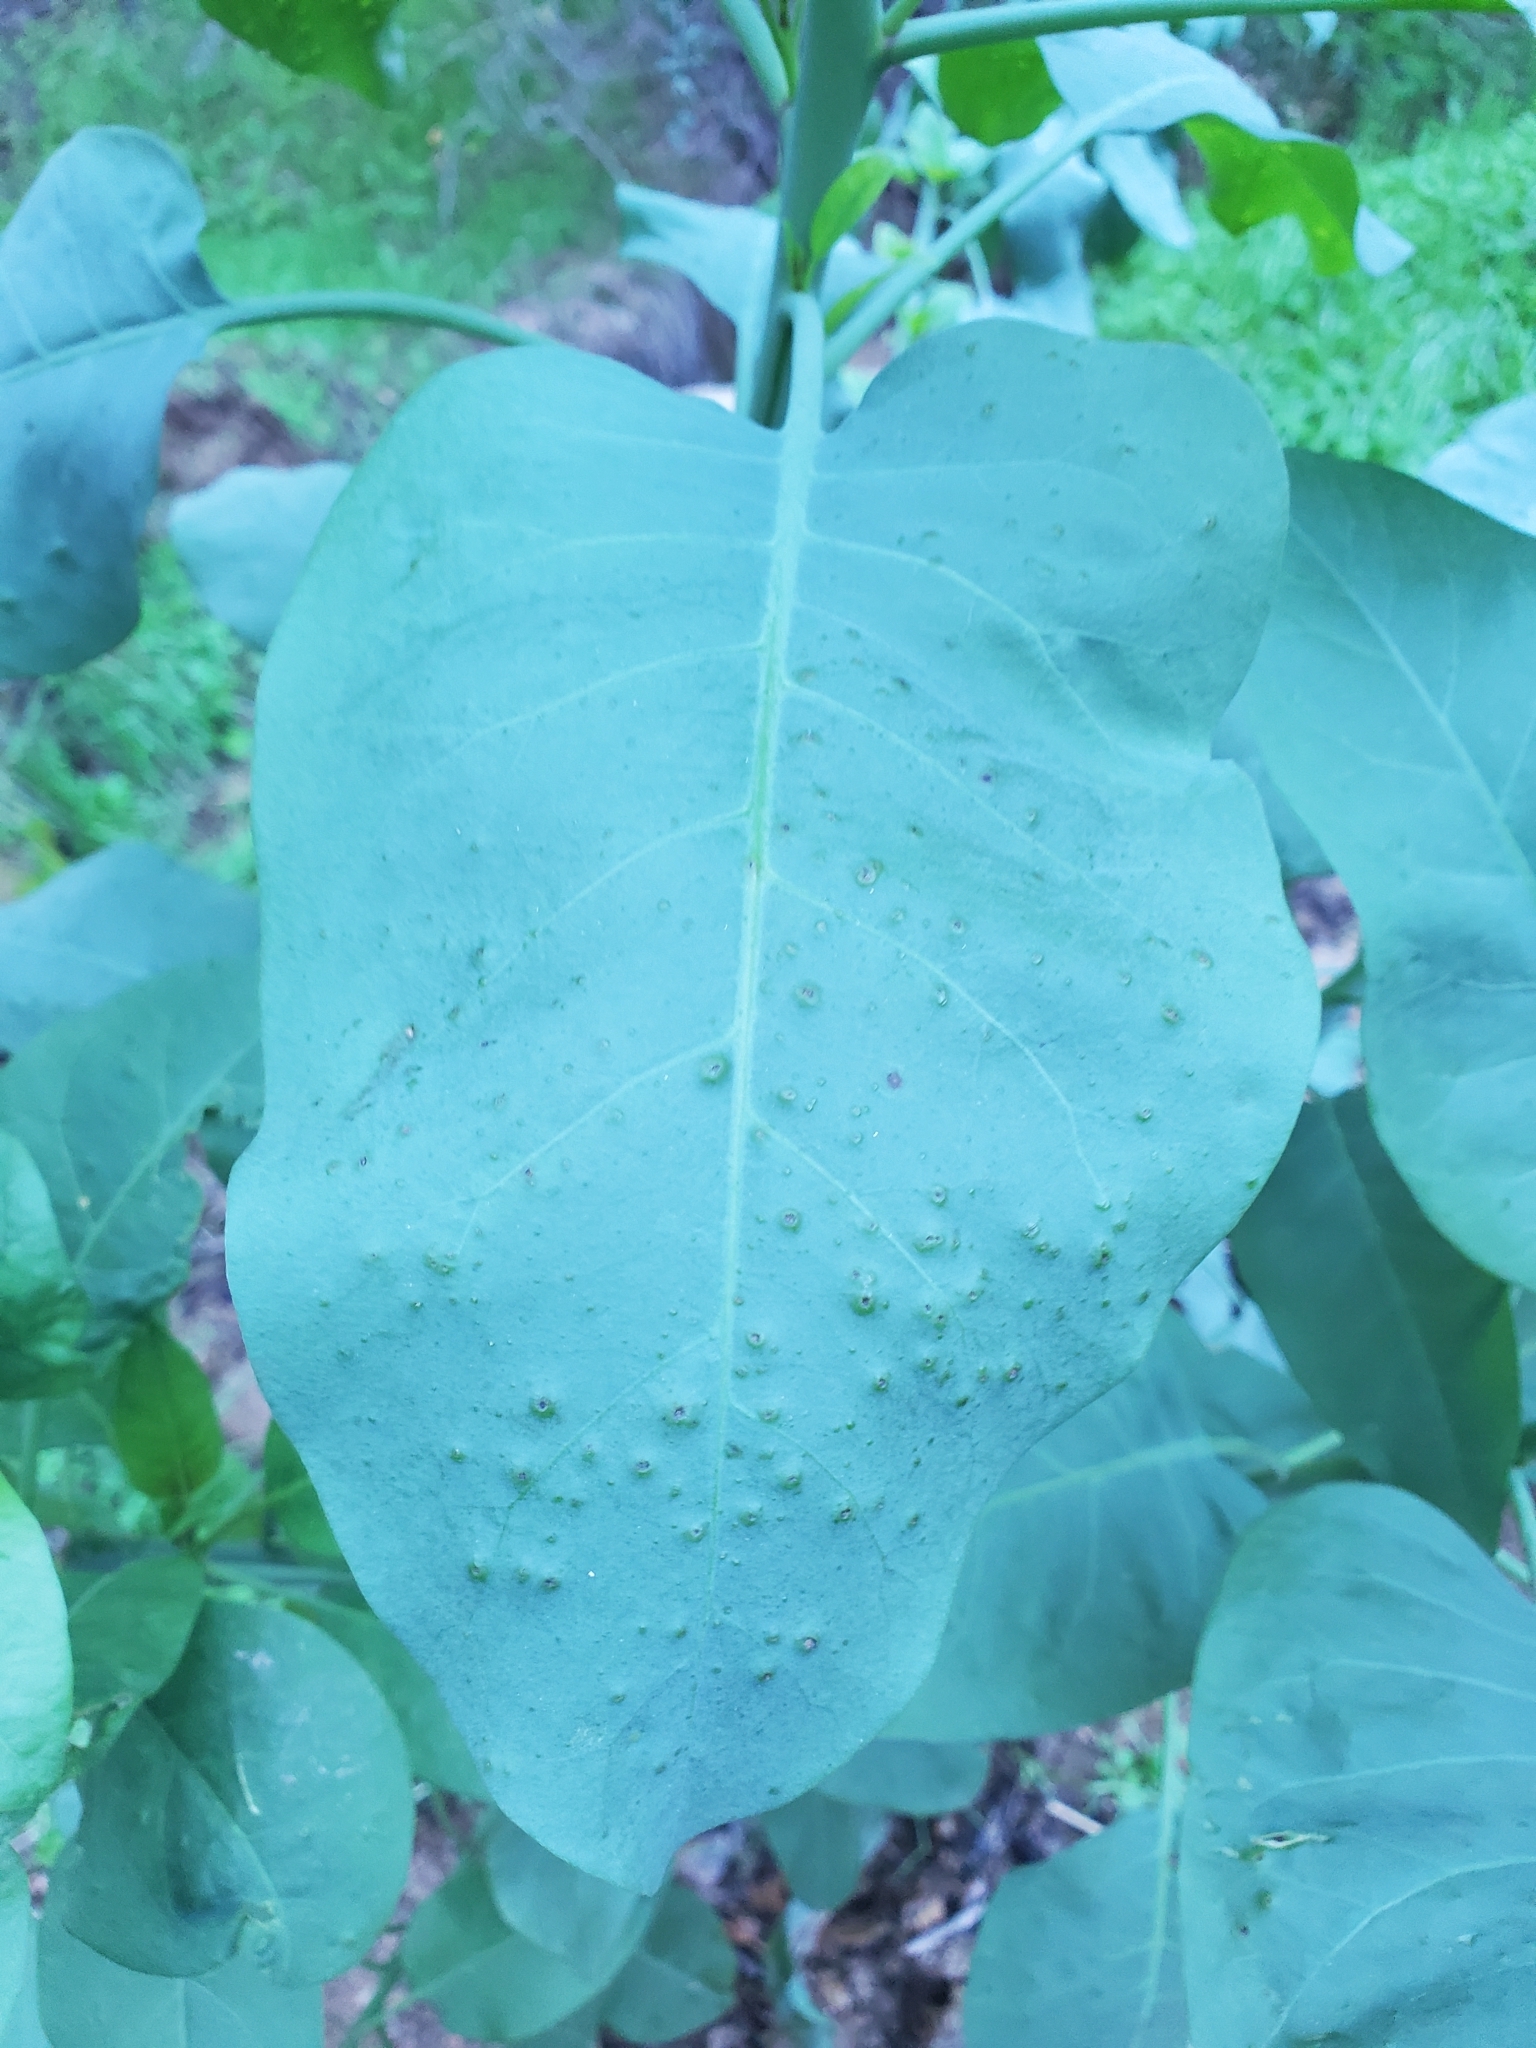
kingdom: Plantae
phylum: Tracheophyta
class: Magnoliopsida
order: Solanales
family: Solanaceae
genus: Nicotiana
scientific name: Nicotiana glauca
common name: Tree tobacco
